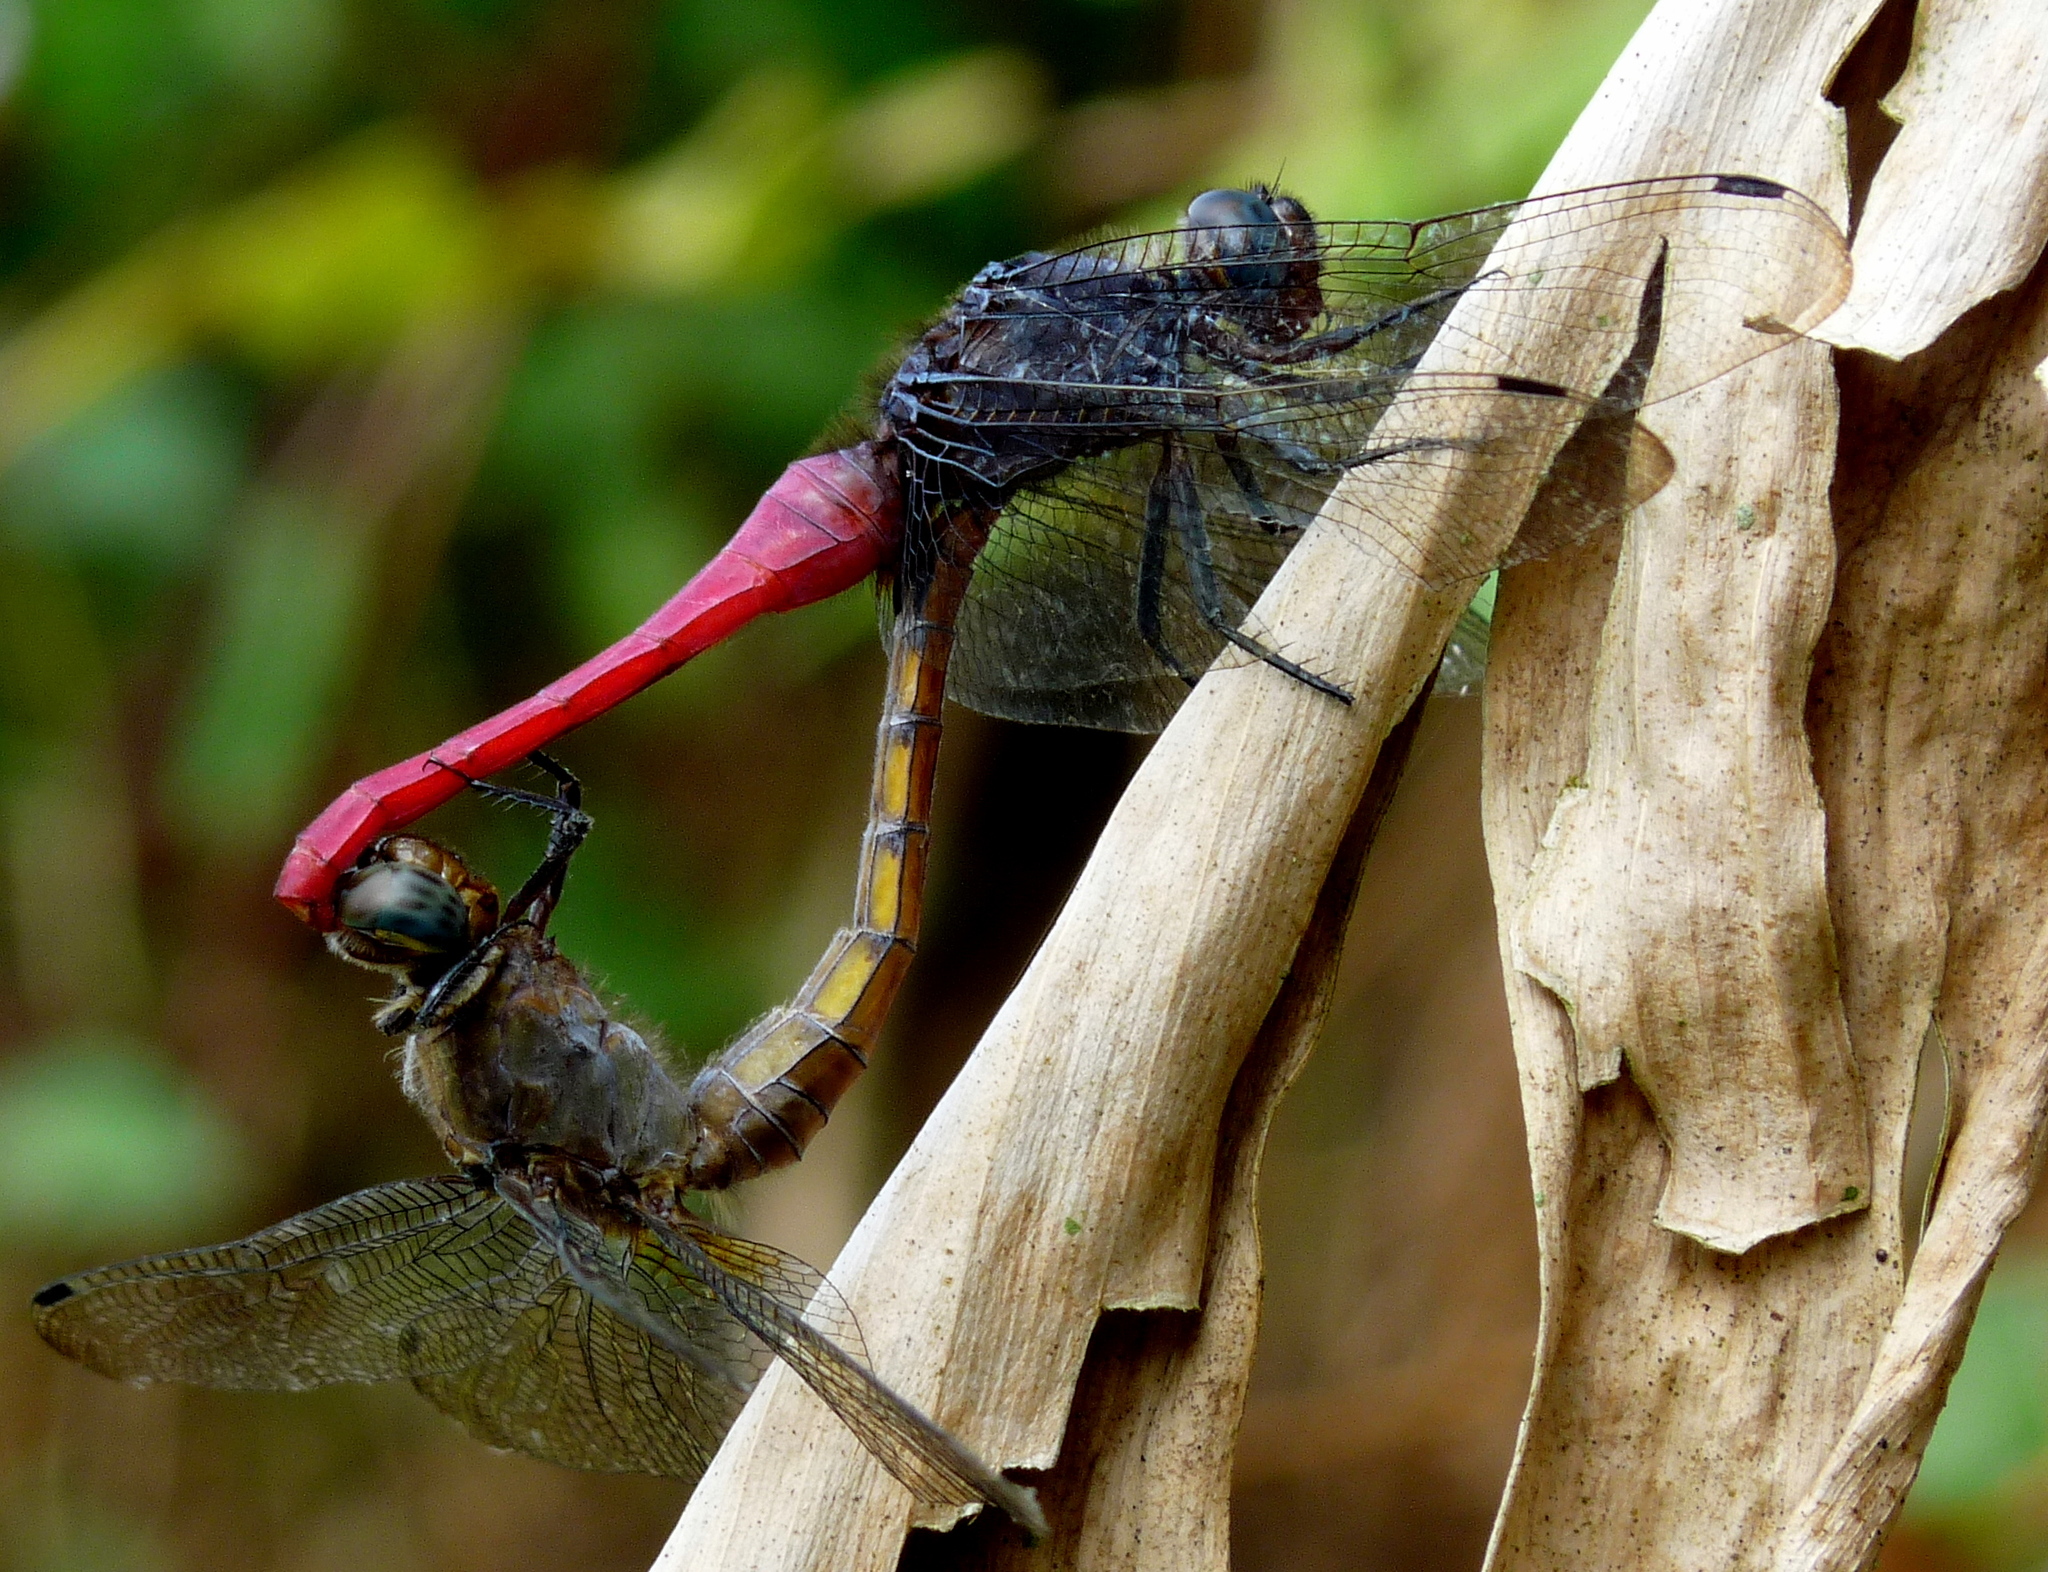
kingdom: Animalia
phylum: Arthropoda
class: Insecta
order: Odonata
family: Libellulidae
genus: Orthetrum
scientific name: Orthetrum pruinosum
